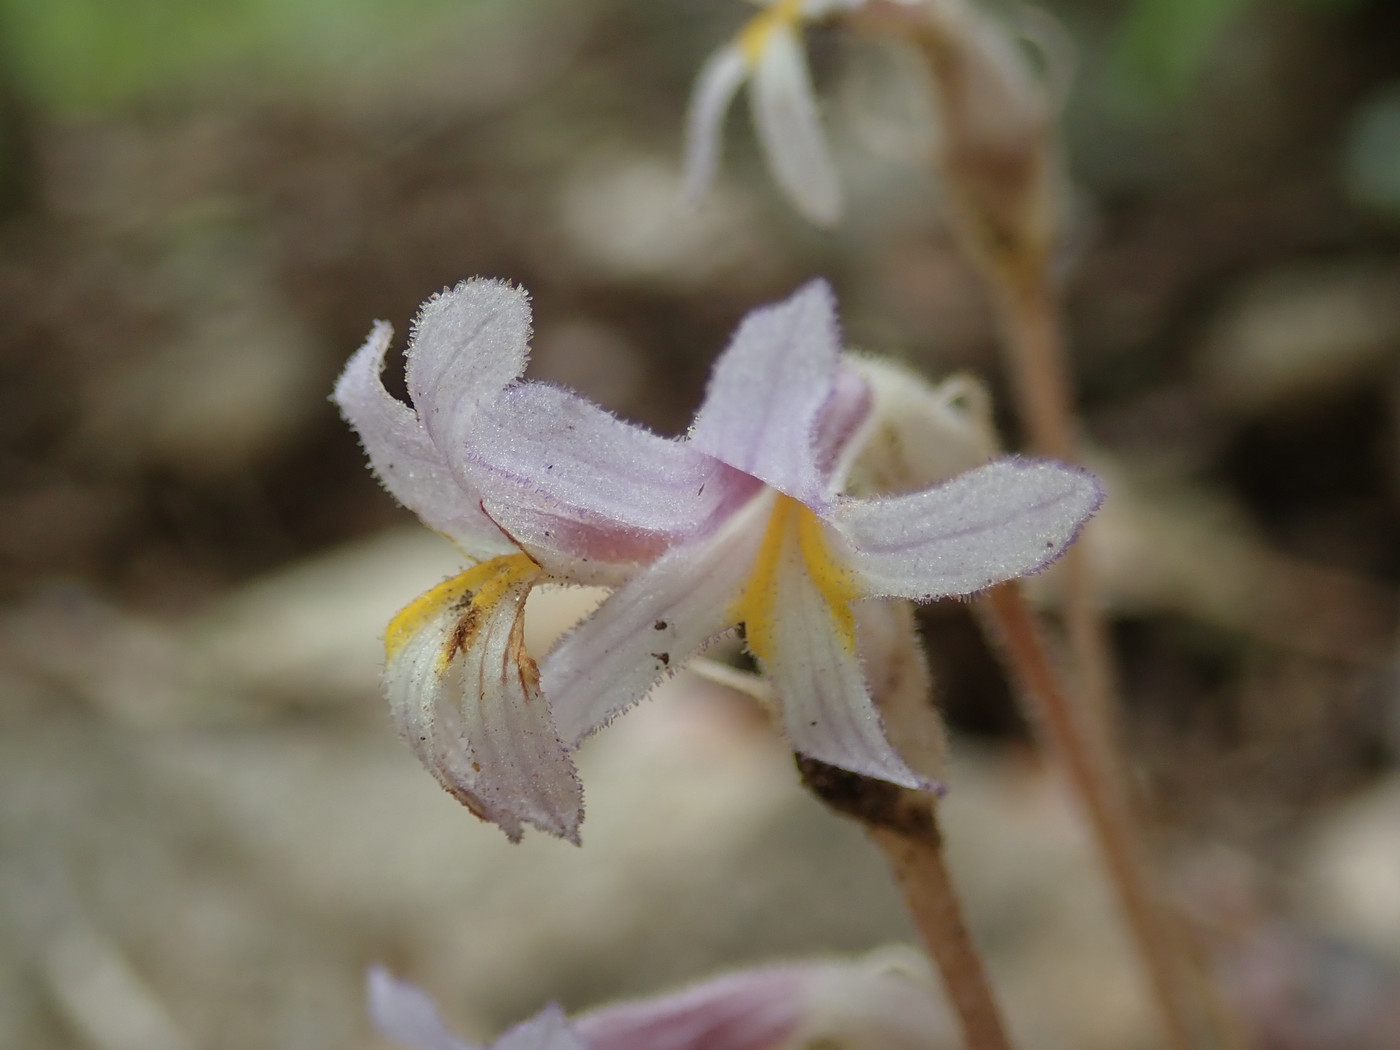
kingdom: Plantae
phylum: Tracheophyta
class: Magnoliopsida
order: Lamiales
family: Orobanchaceae
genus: Aphyllon
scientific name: Aphyllon uniflorum
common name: One-flowered broomrape
